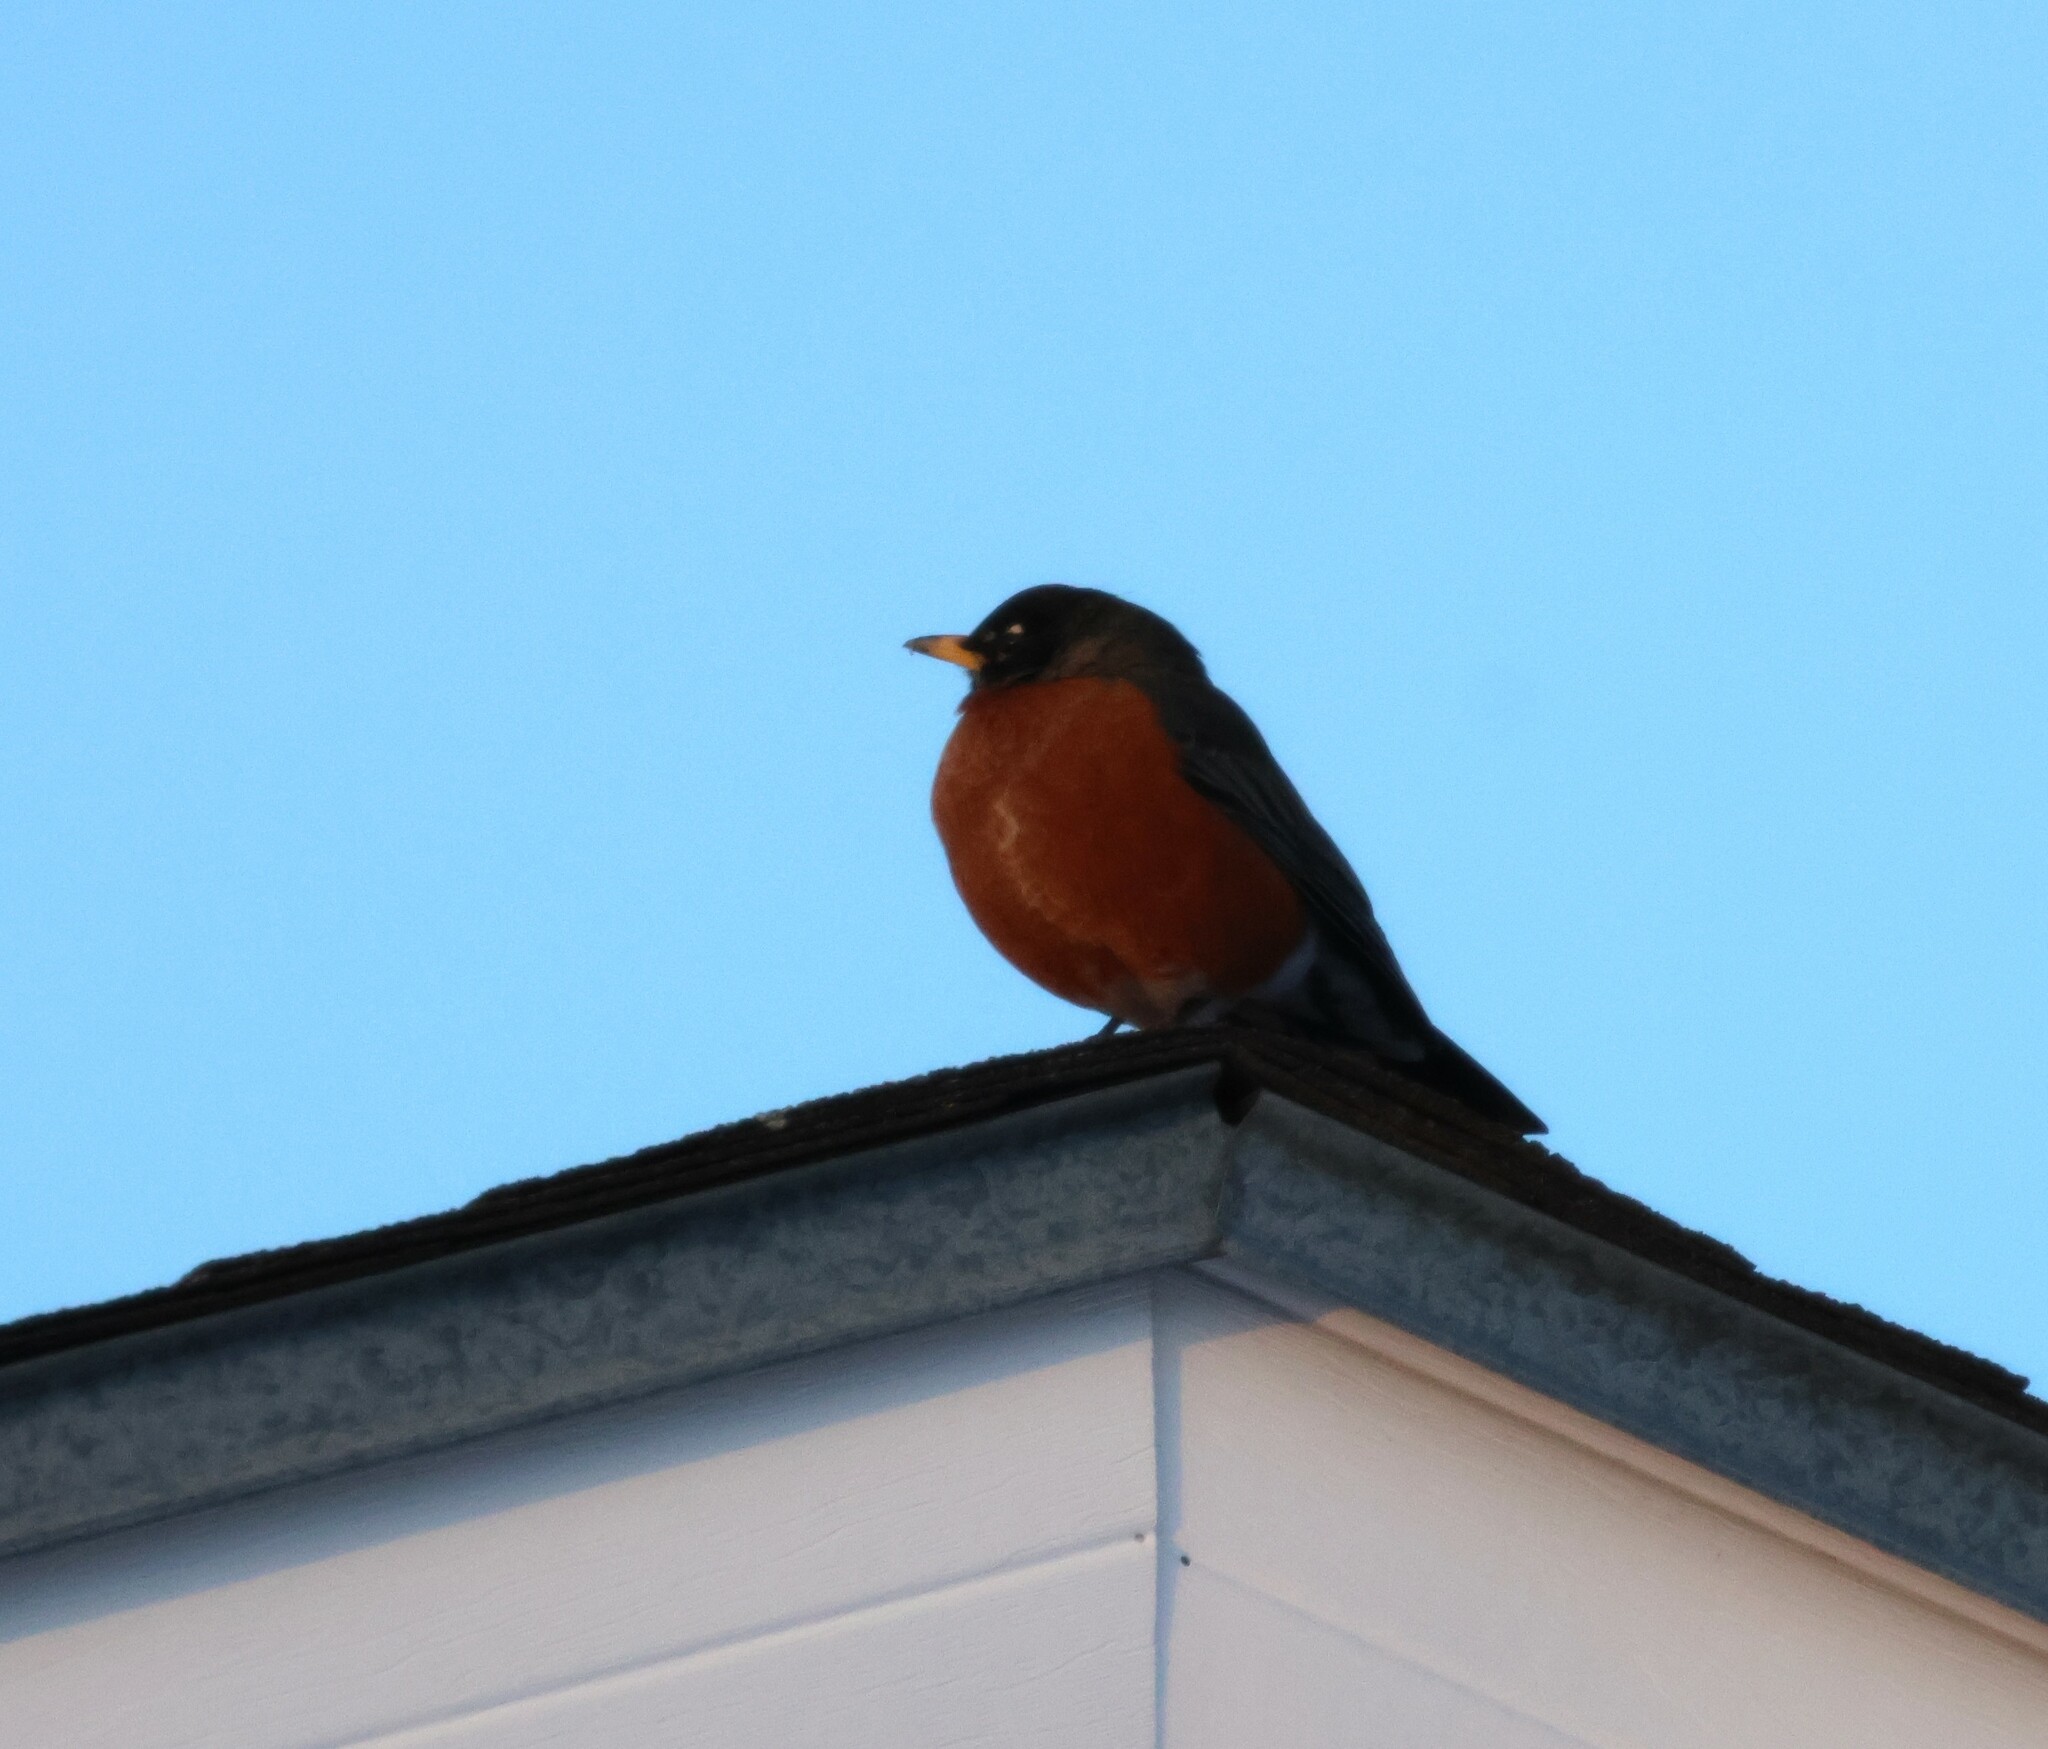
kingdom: Animalia
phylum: Chordata
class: Aves
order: Passeriformes
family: Turdidae
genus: Turdus
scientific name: Turdus migratorius
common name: American robin
